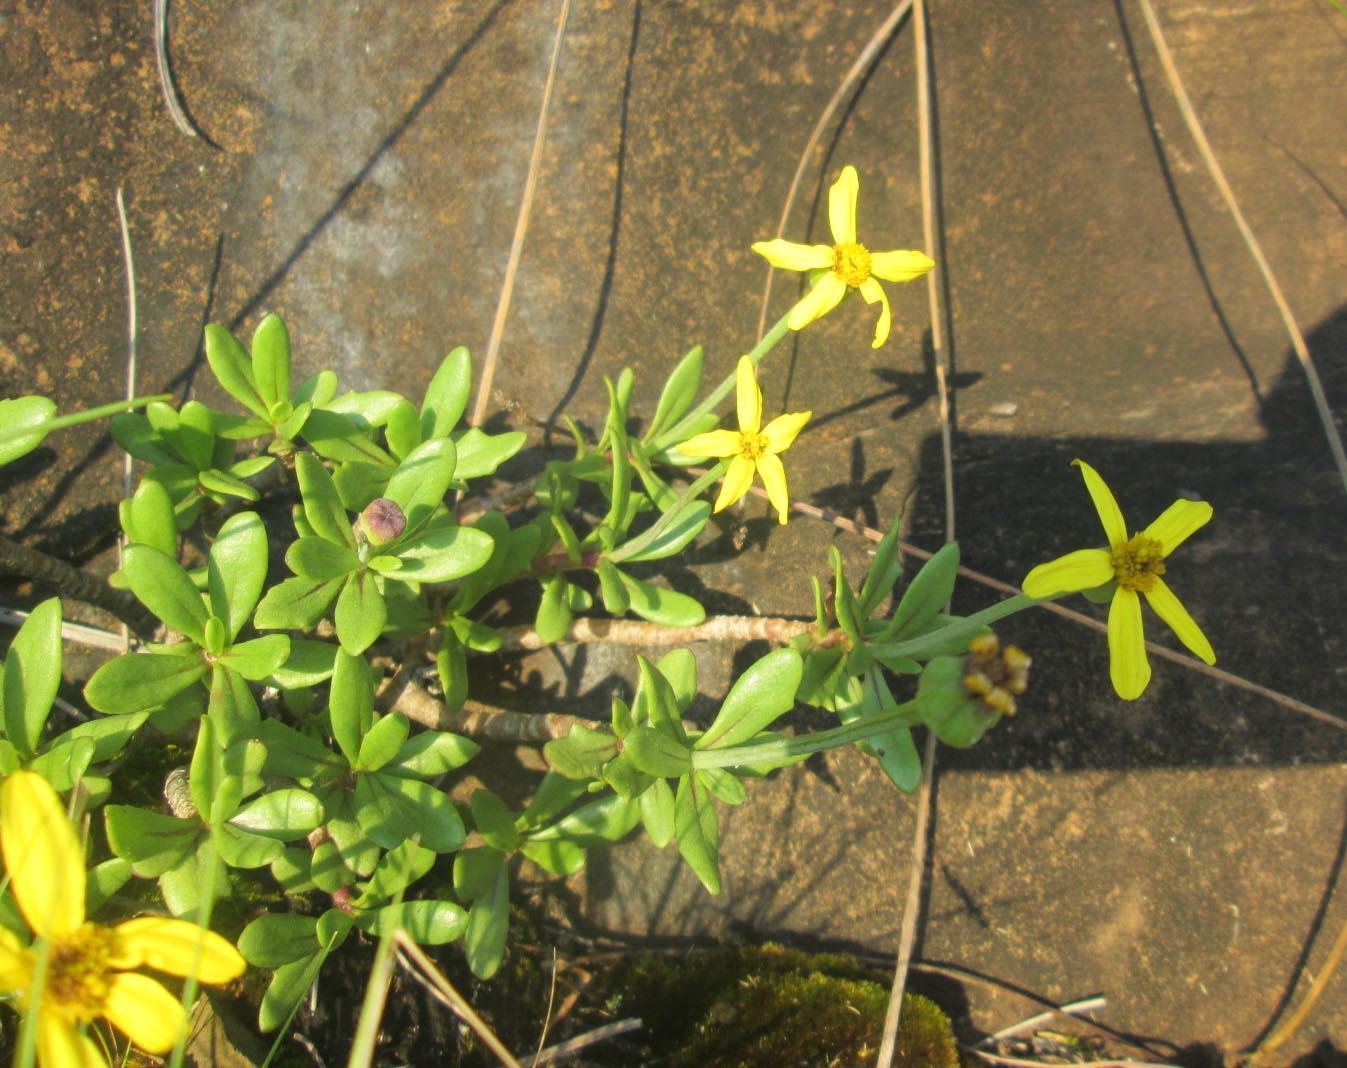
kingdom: Plantae
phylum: Tracheophyta
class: Magnoliopsida
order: Asterales
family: Asteraceae
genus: Othonna
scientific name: Othonna arborescens
